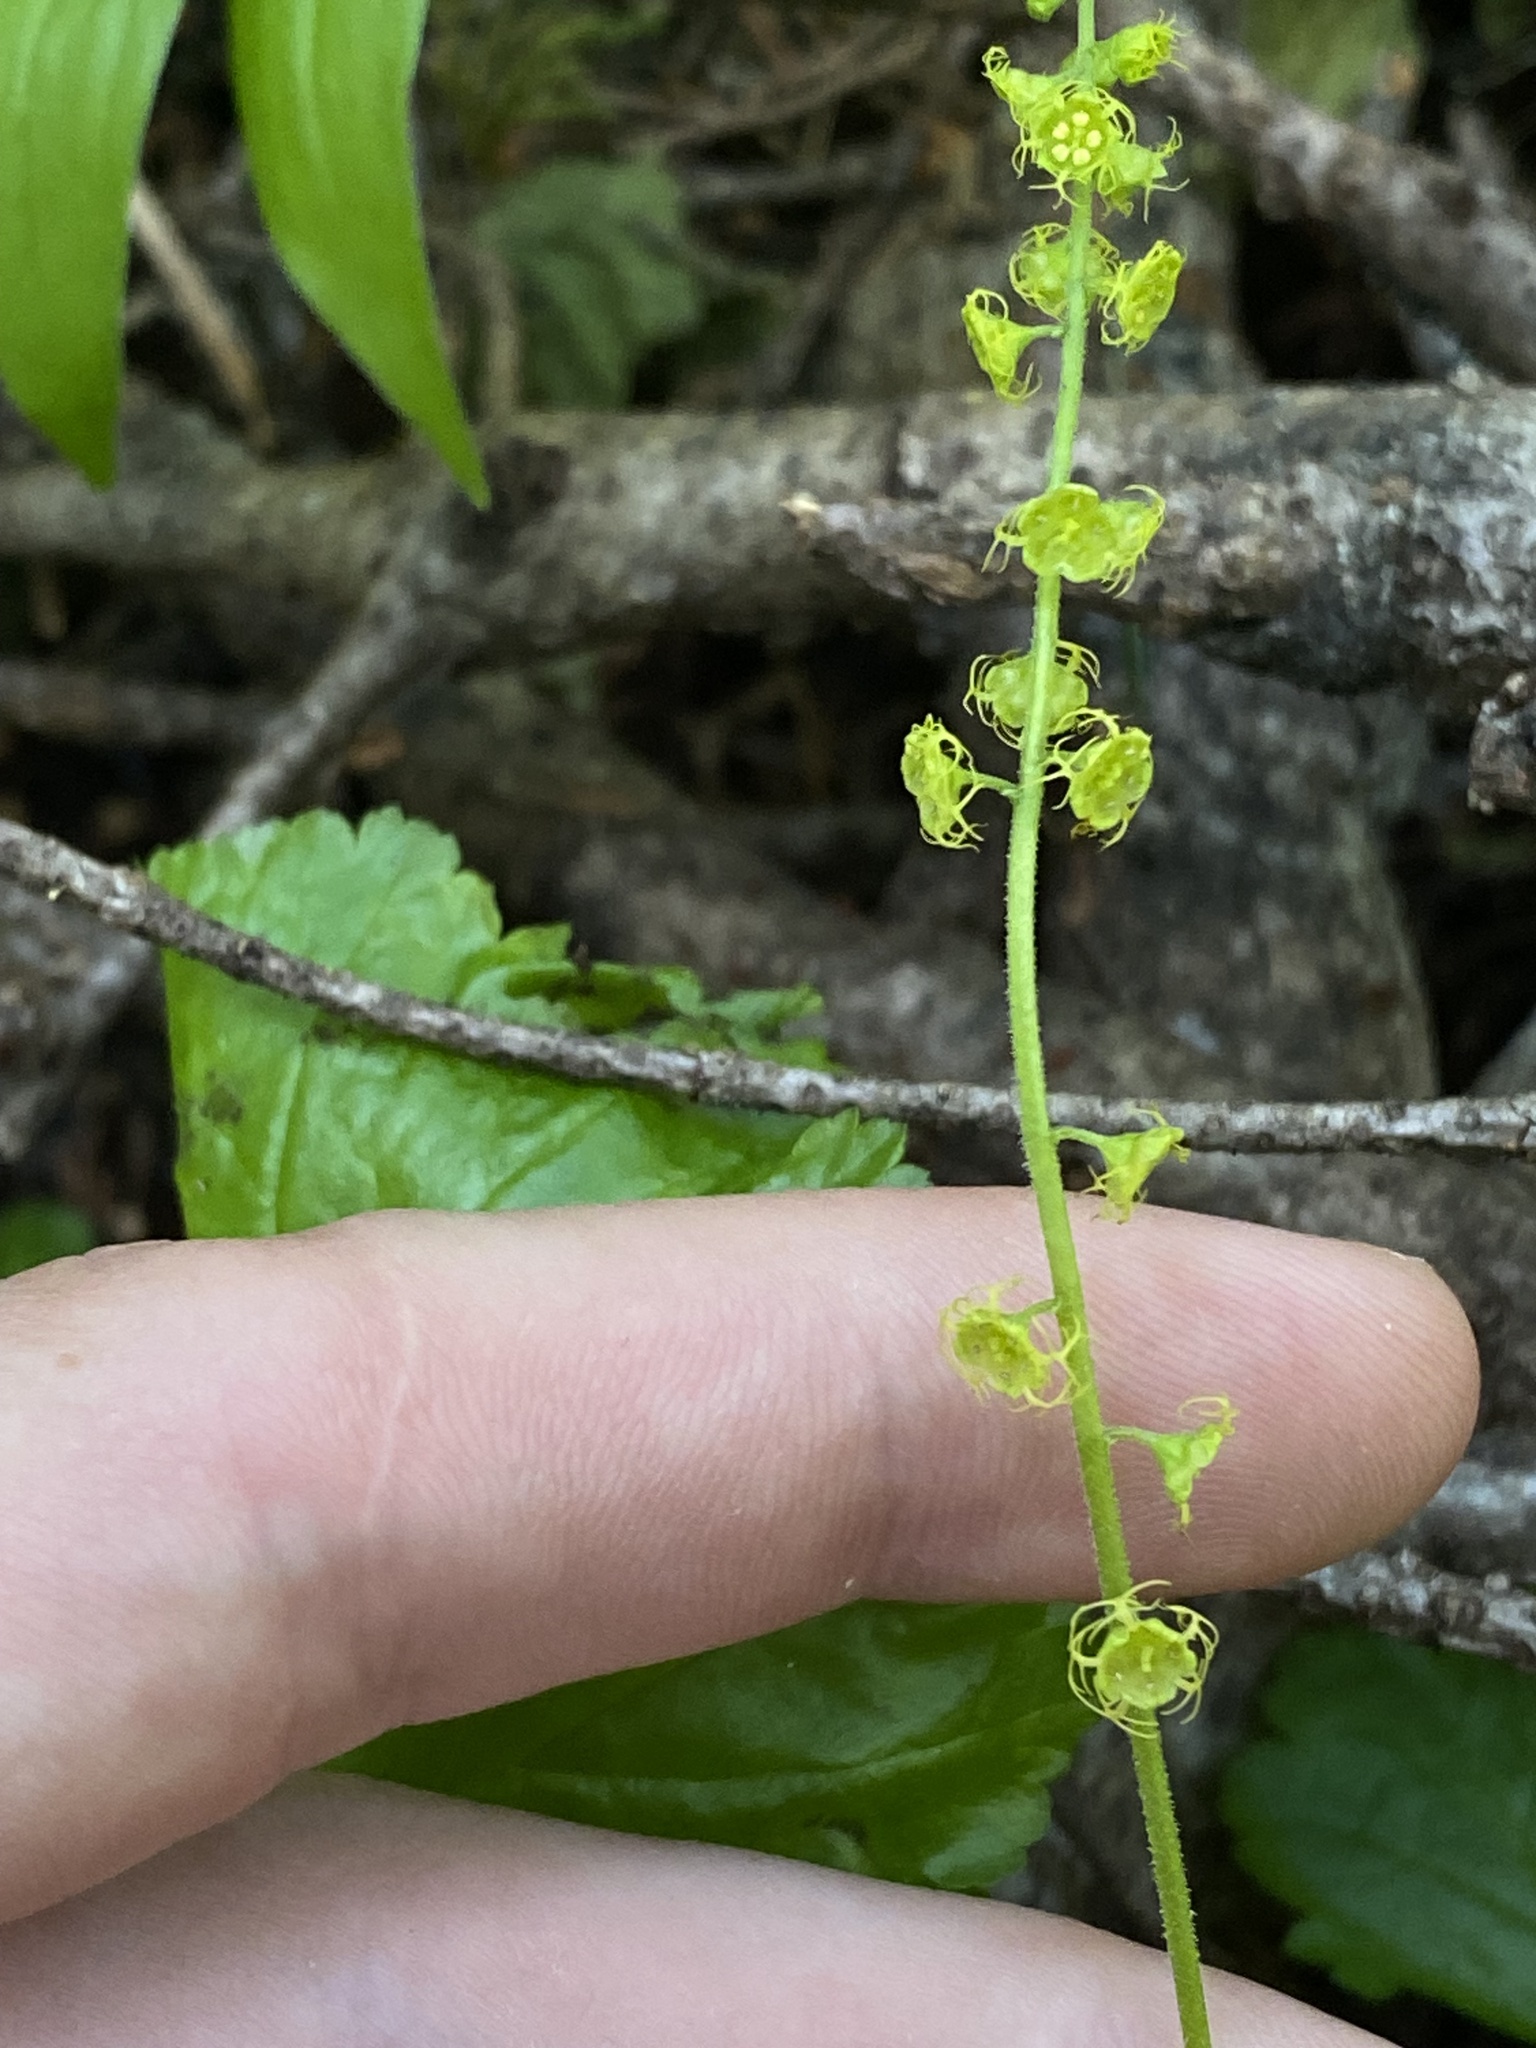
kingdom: Plantae
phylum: Tracheophyta
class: Magnoliopsida
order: Saxifragales
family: Saxifragaceae
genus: Brewerimitella
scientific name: Brewerimitella breweri
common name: Brewer's bishop's-cap
